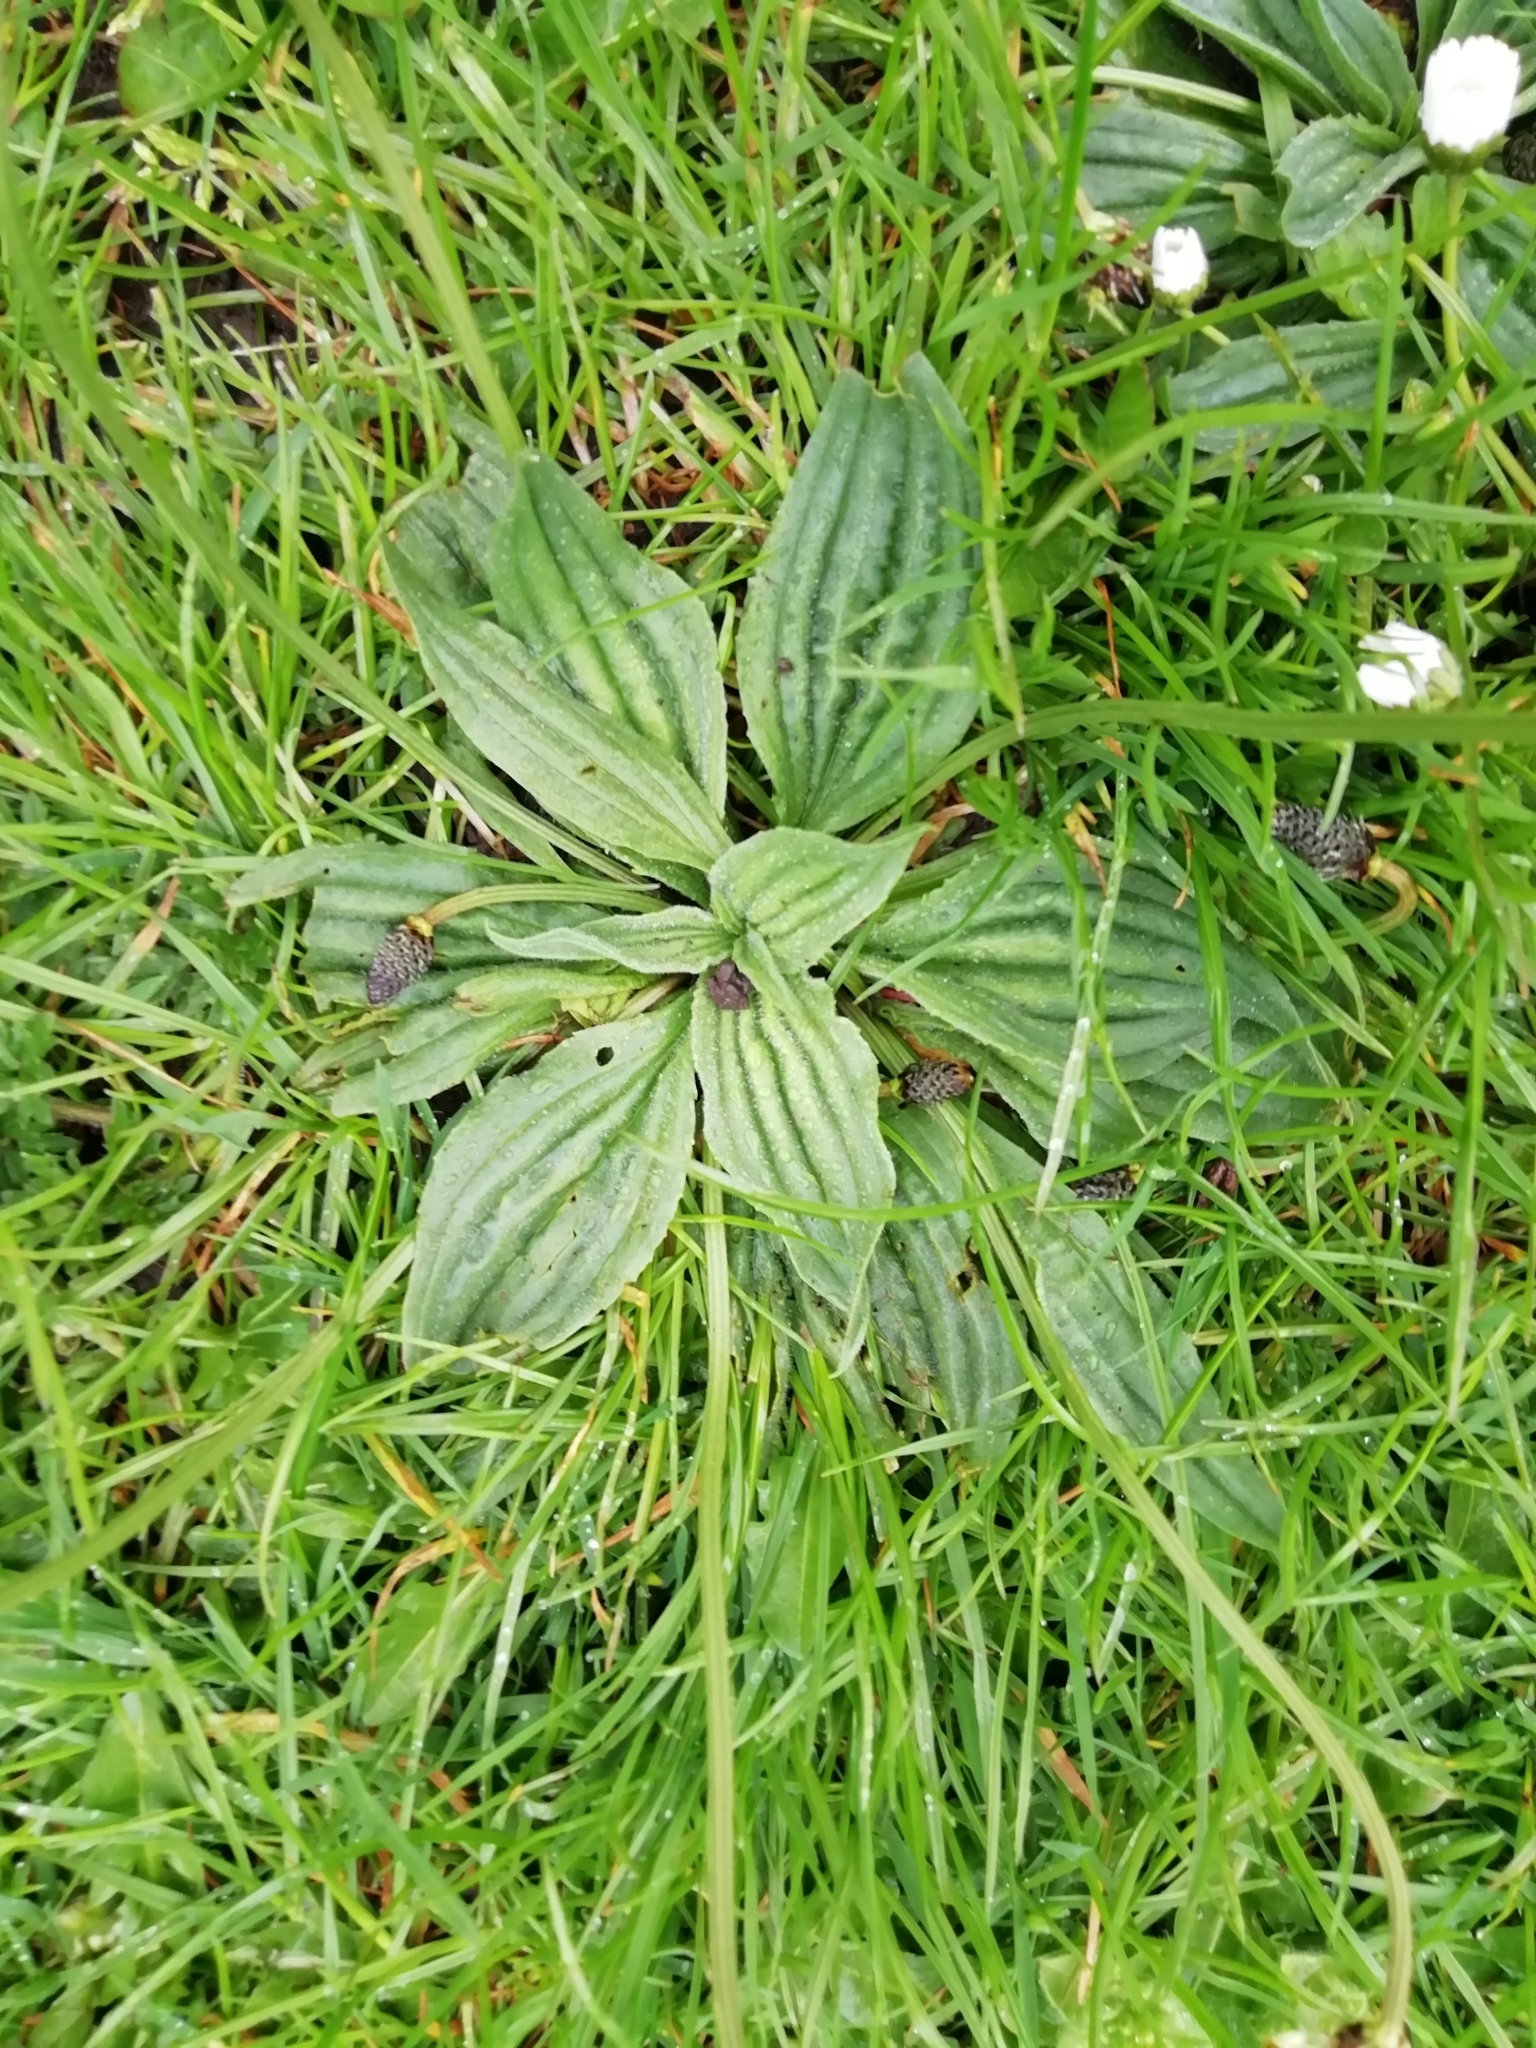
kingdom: Plantae
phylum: Tracheophyta
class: Magnoliopsida
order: Lamiales
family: Plantaginaceae
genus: Plantago
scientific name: Plantago lanceolata
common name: Ribwort plantain
